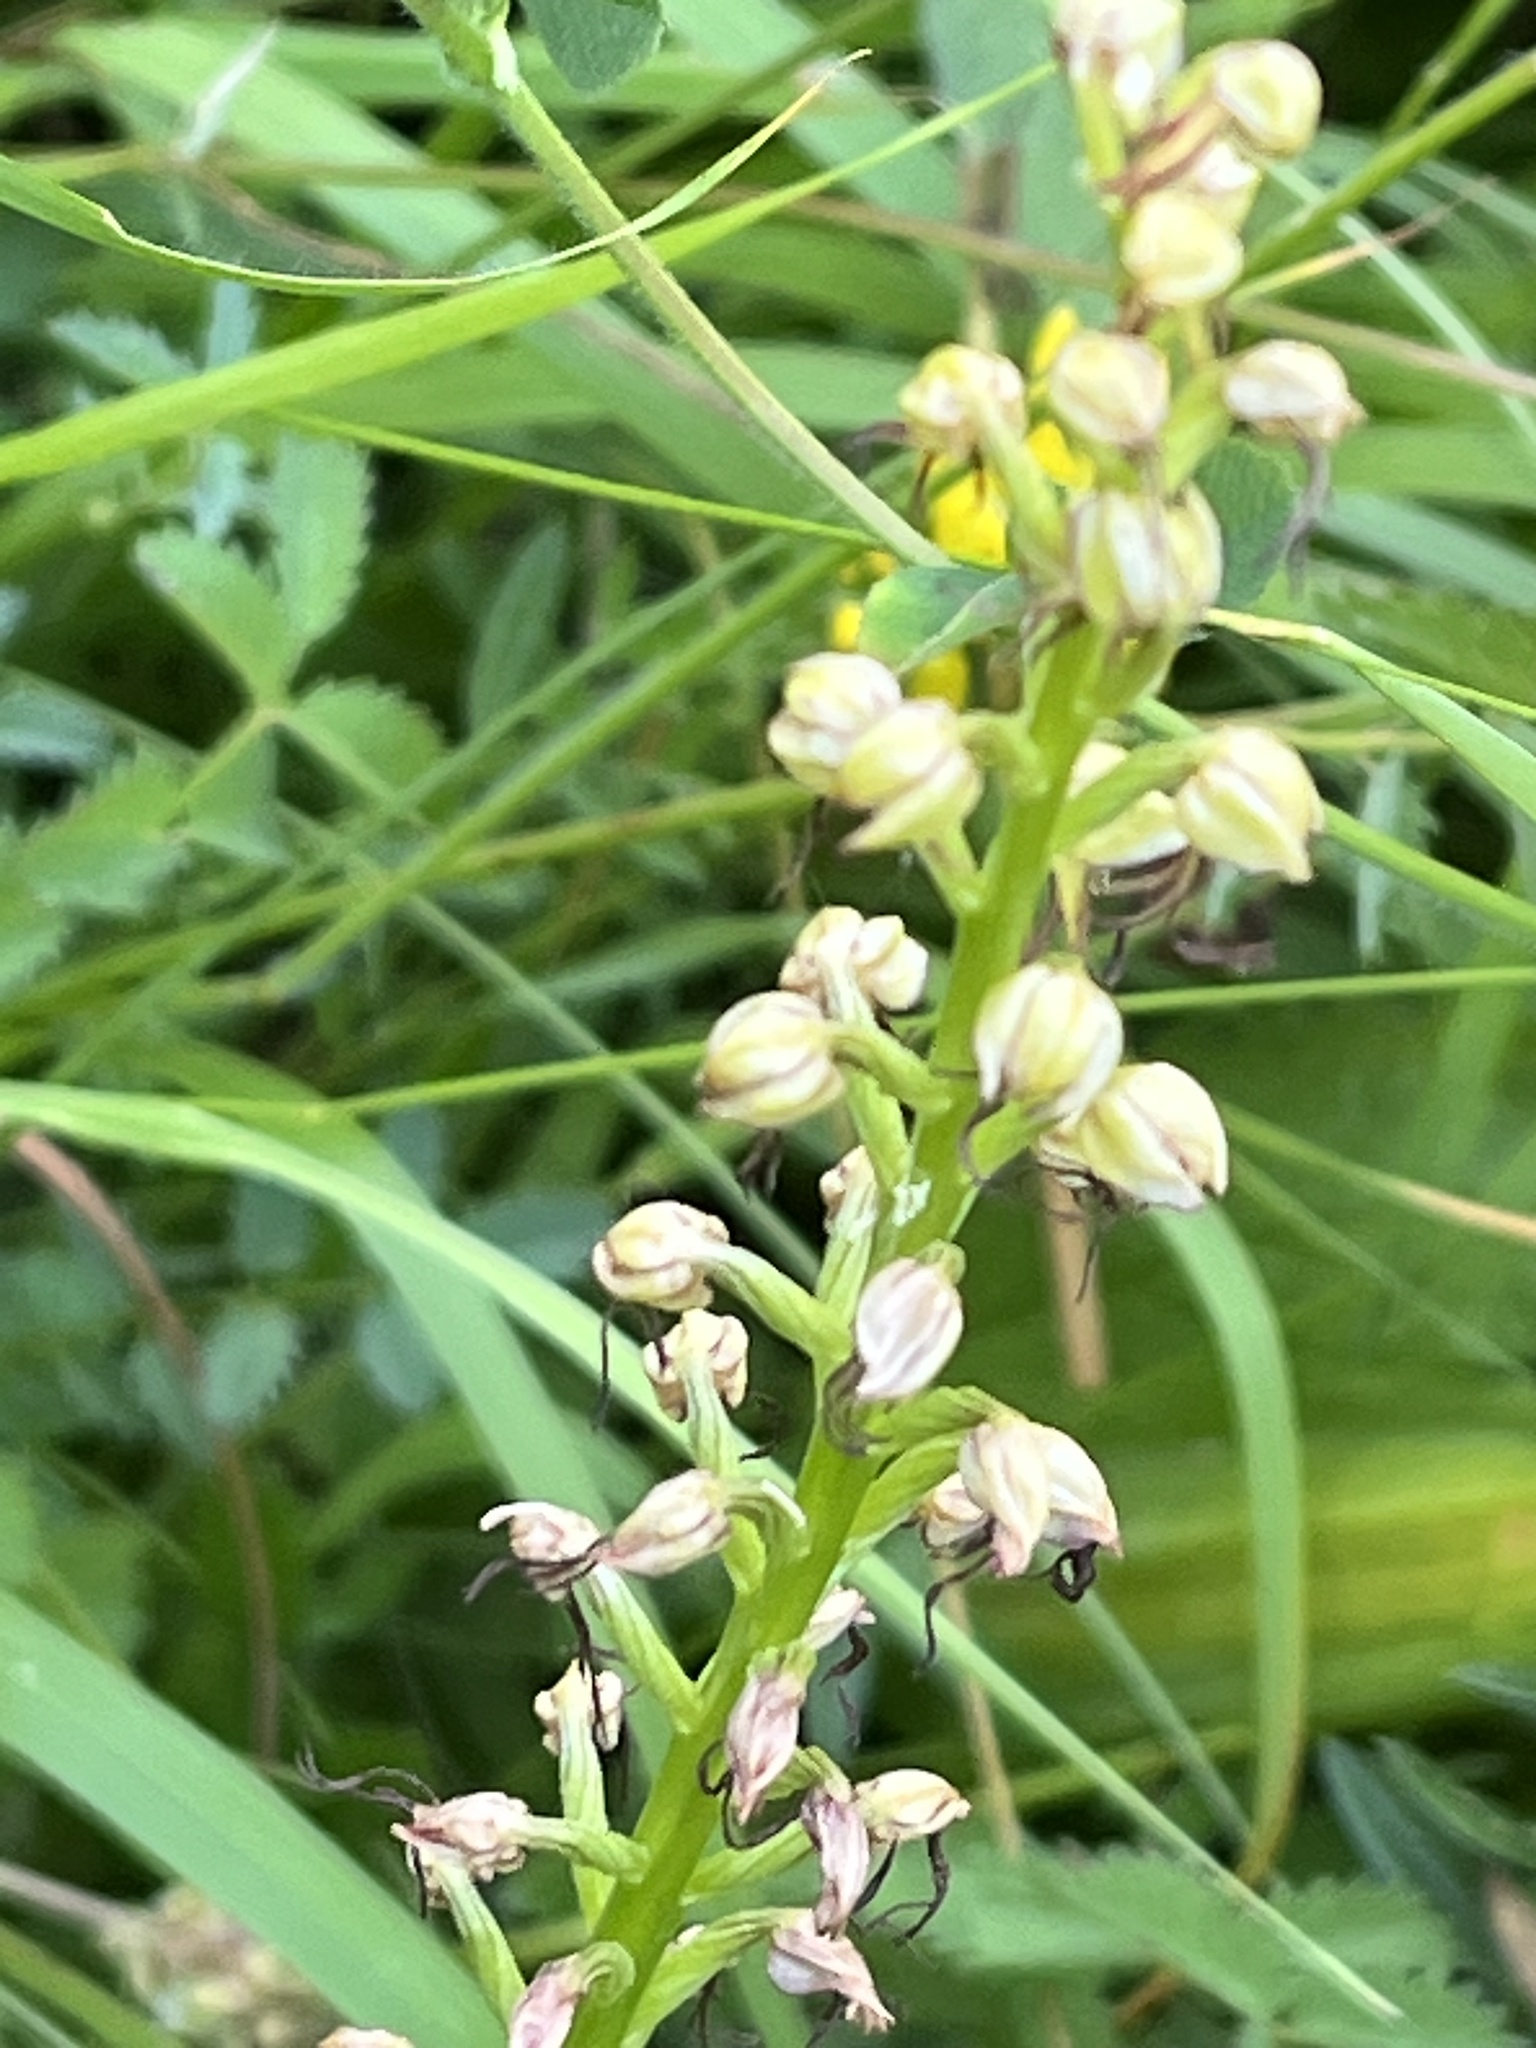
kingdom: Plantae
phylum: Tracheophyta
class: Liliopsida
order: Asparagales
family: Orchidaceae
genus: Orchis
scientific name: Orchis anthropophora
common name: Man orchid
